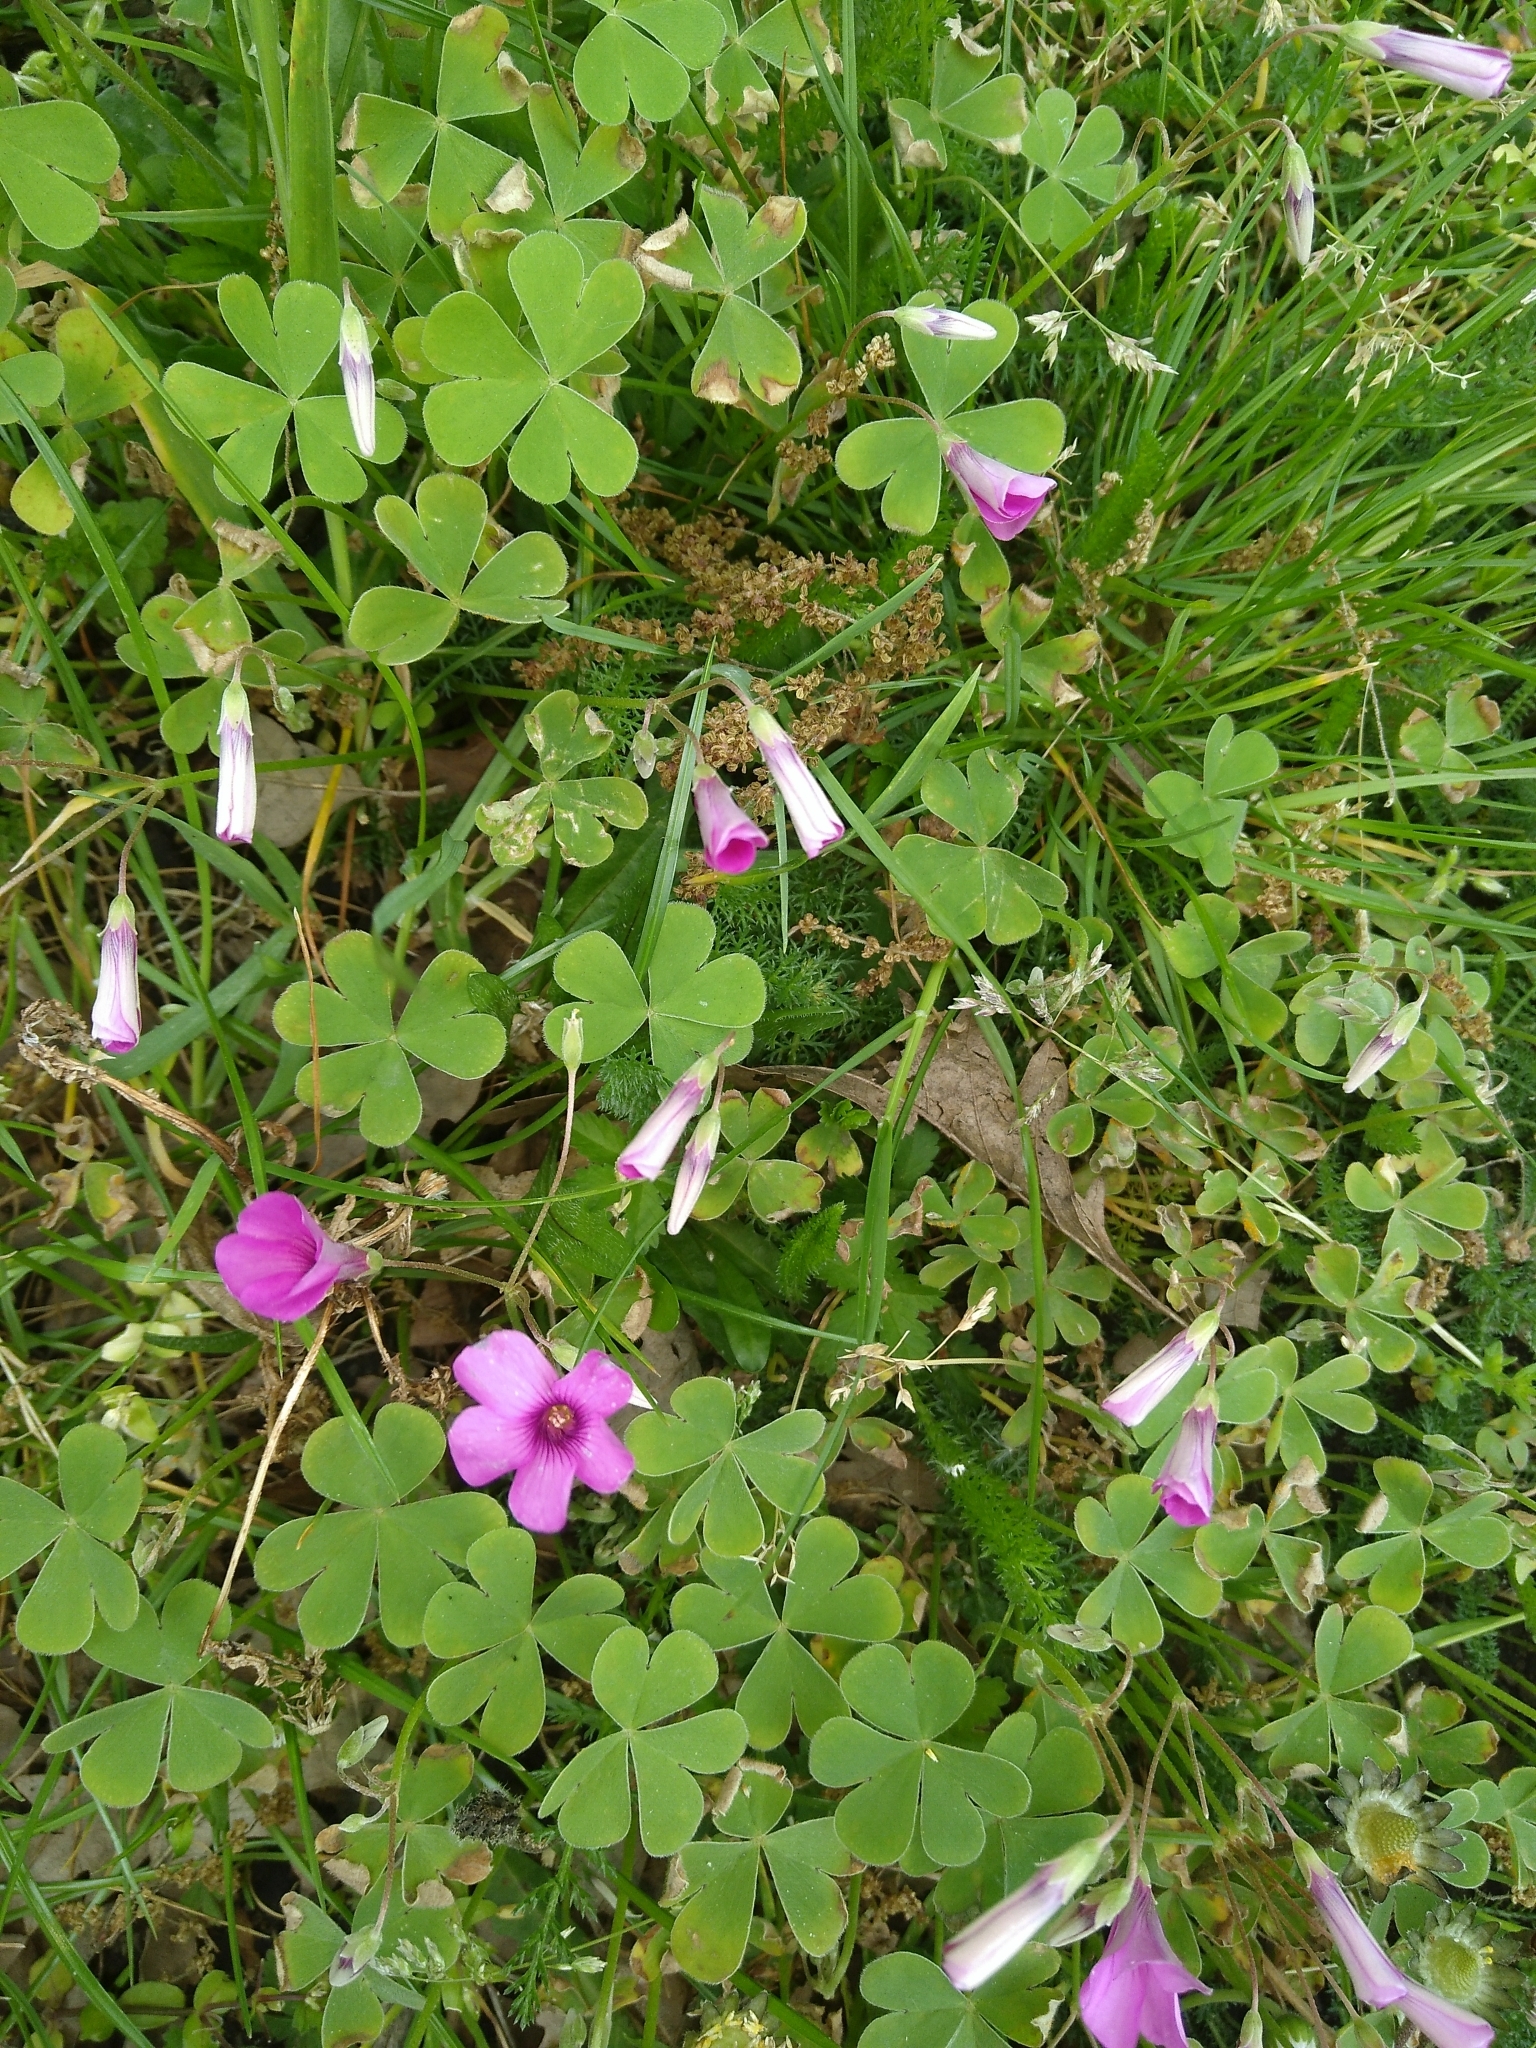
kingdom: Plantae
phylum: Tracheophyta
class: Magnoliopsida
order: Oxalidales
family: Oxalidaceae
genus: Oxalis
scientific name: Oxalis articulata
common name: Pink-sorrel
